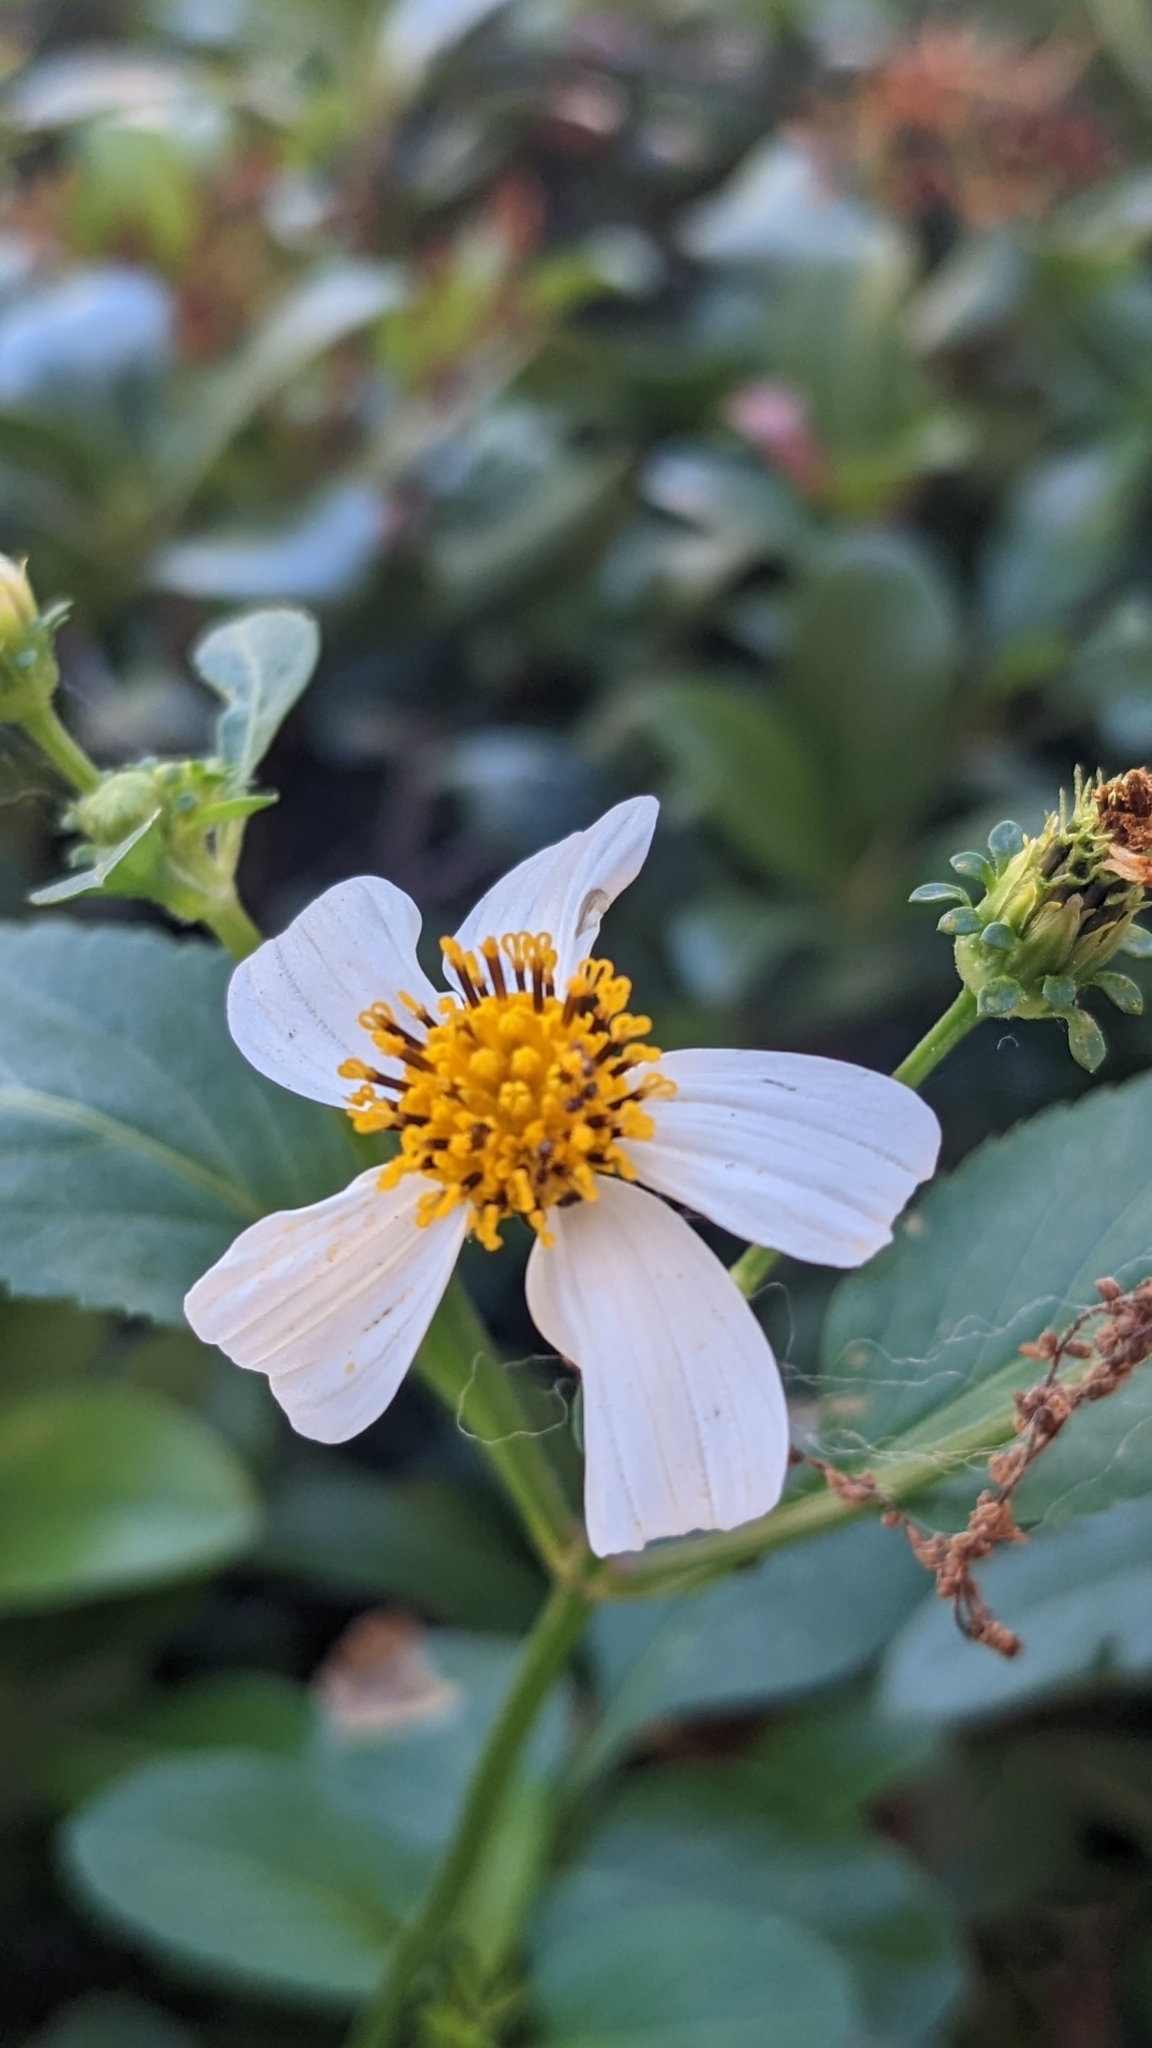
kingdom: Plantae
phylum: Tracheophyta
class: Magnoliopsida
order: Asterales
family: Asteraceae
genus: Bidens
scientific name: Bidens alba
